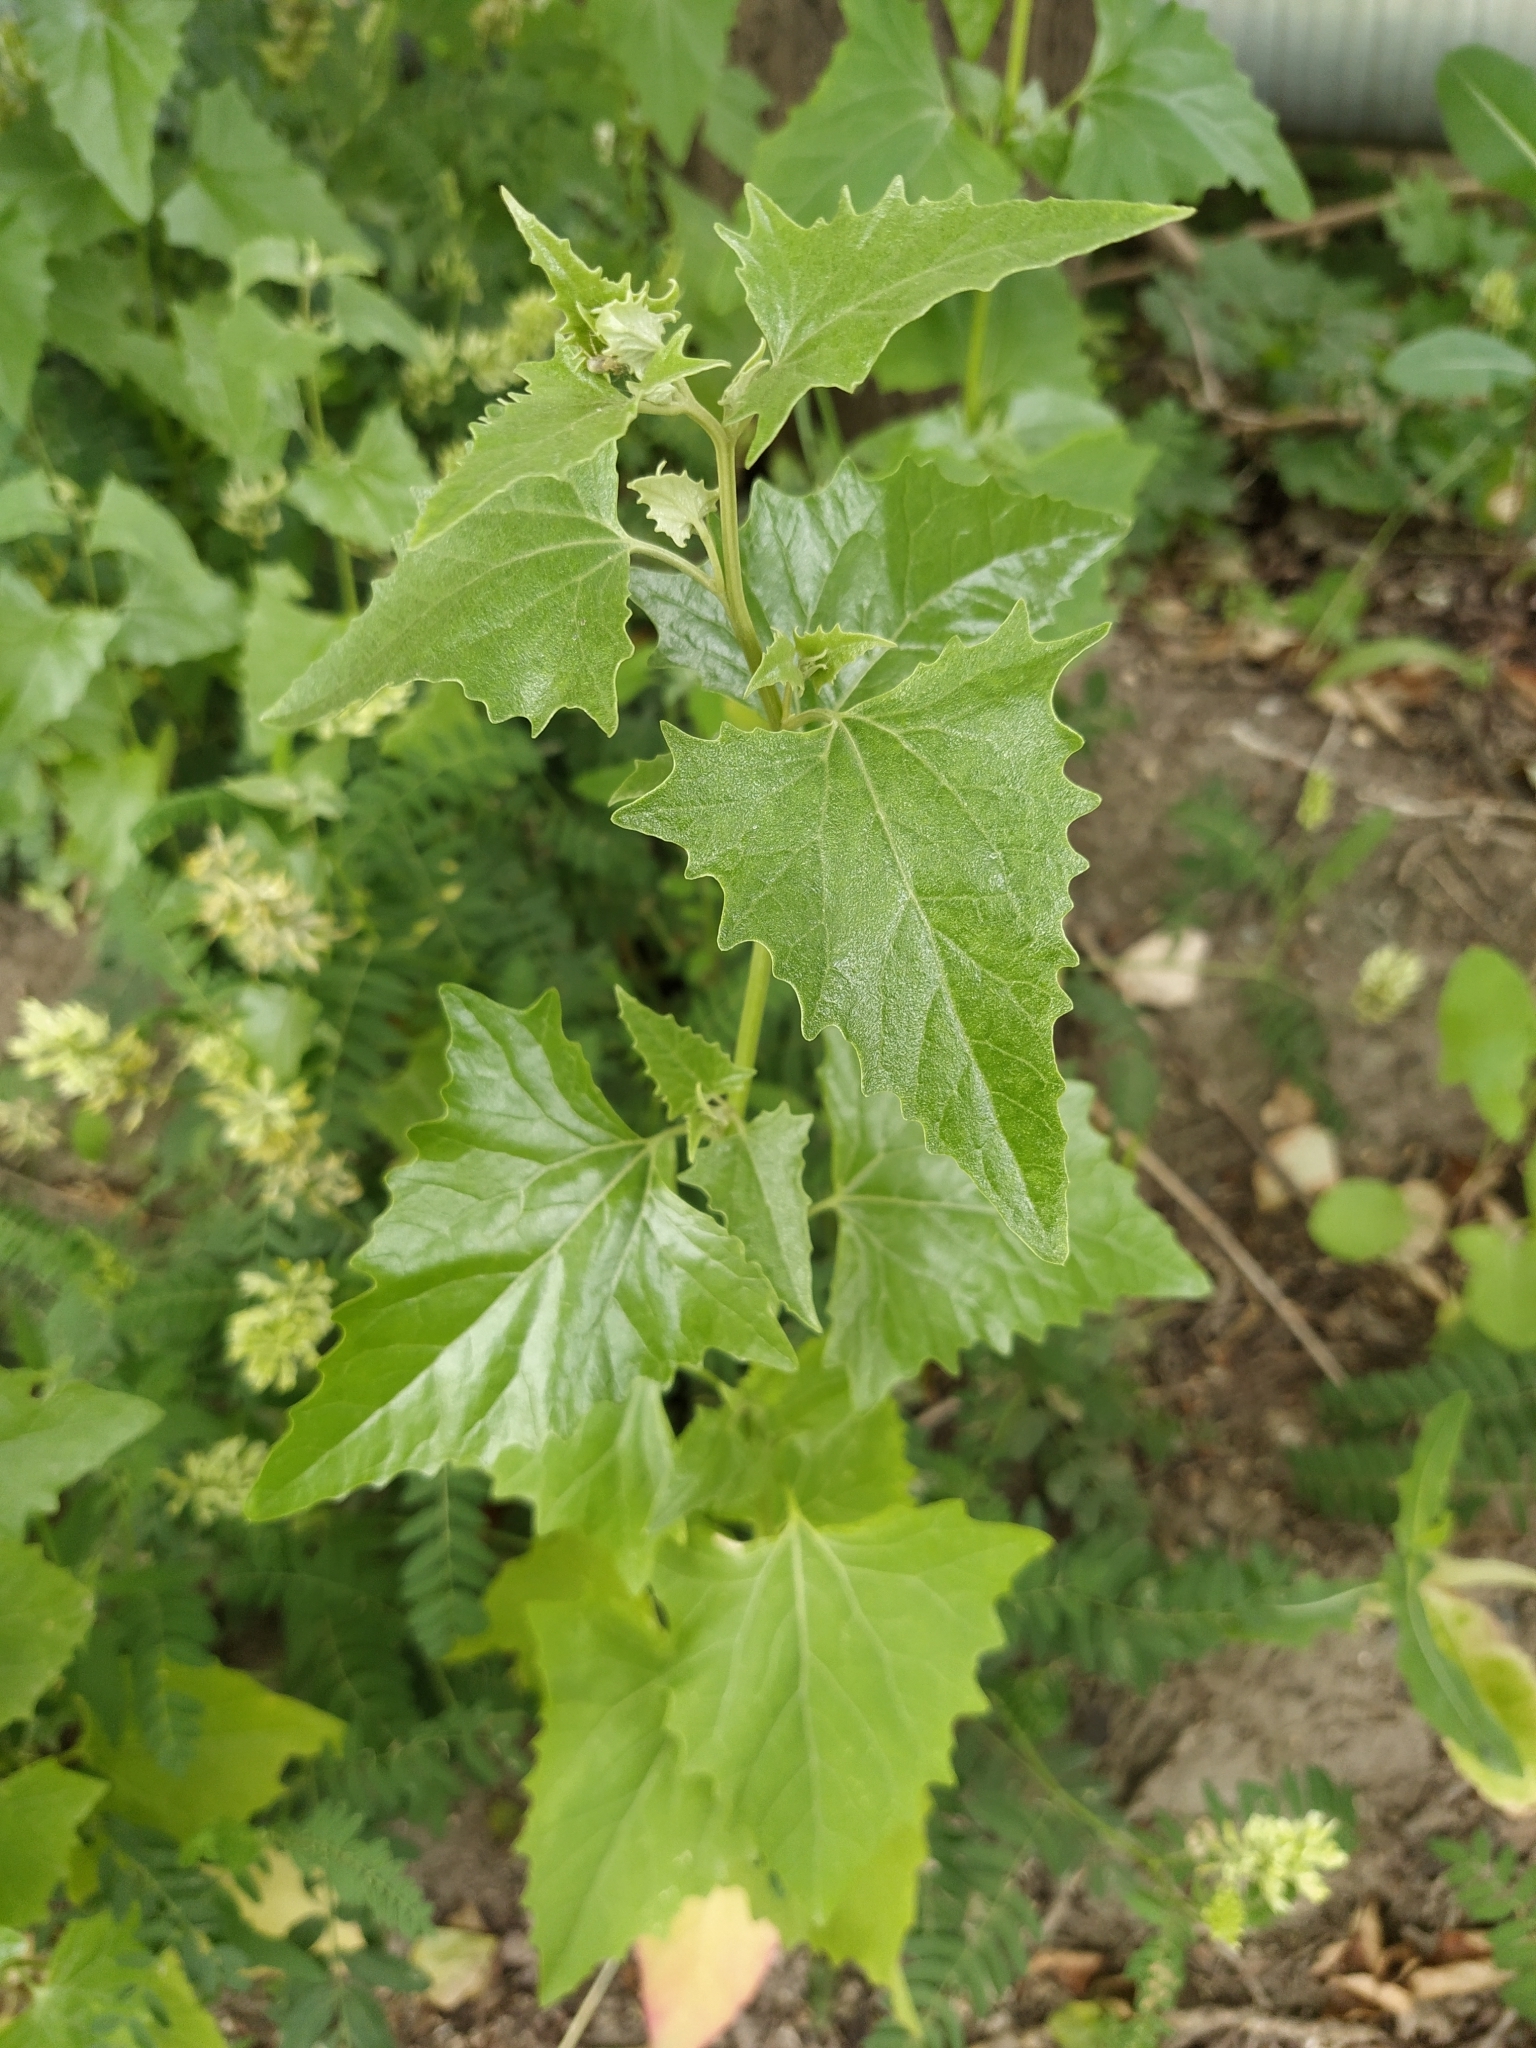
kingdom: Plantae
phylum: Tracheophyta
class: Magnoliopsida
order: Caryophyllales
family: Amaranthaceae
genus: Atriplex
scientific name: Atriplex sagittata
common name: Purple orache
